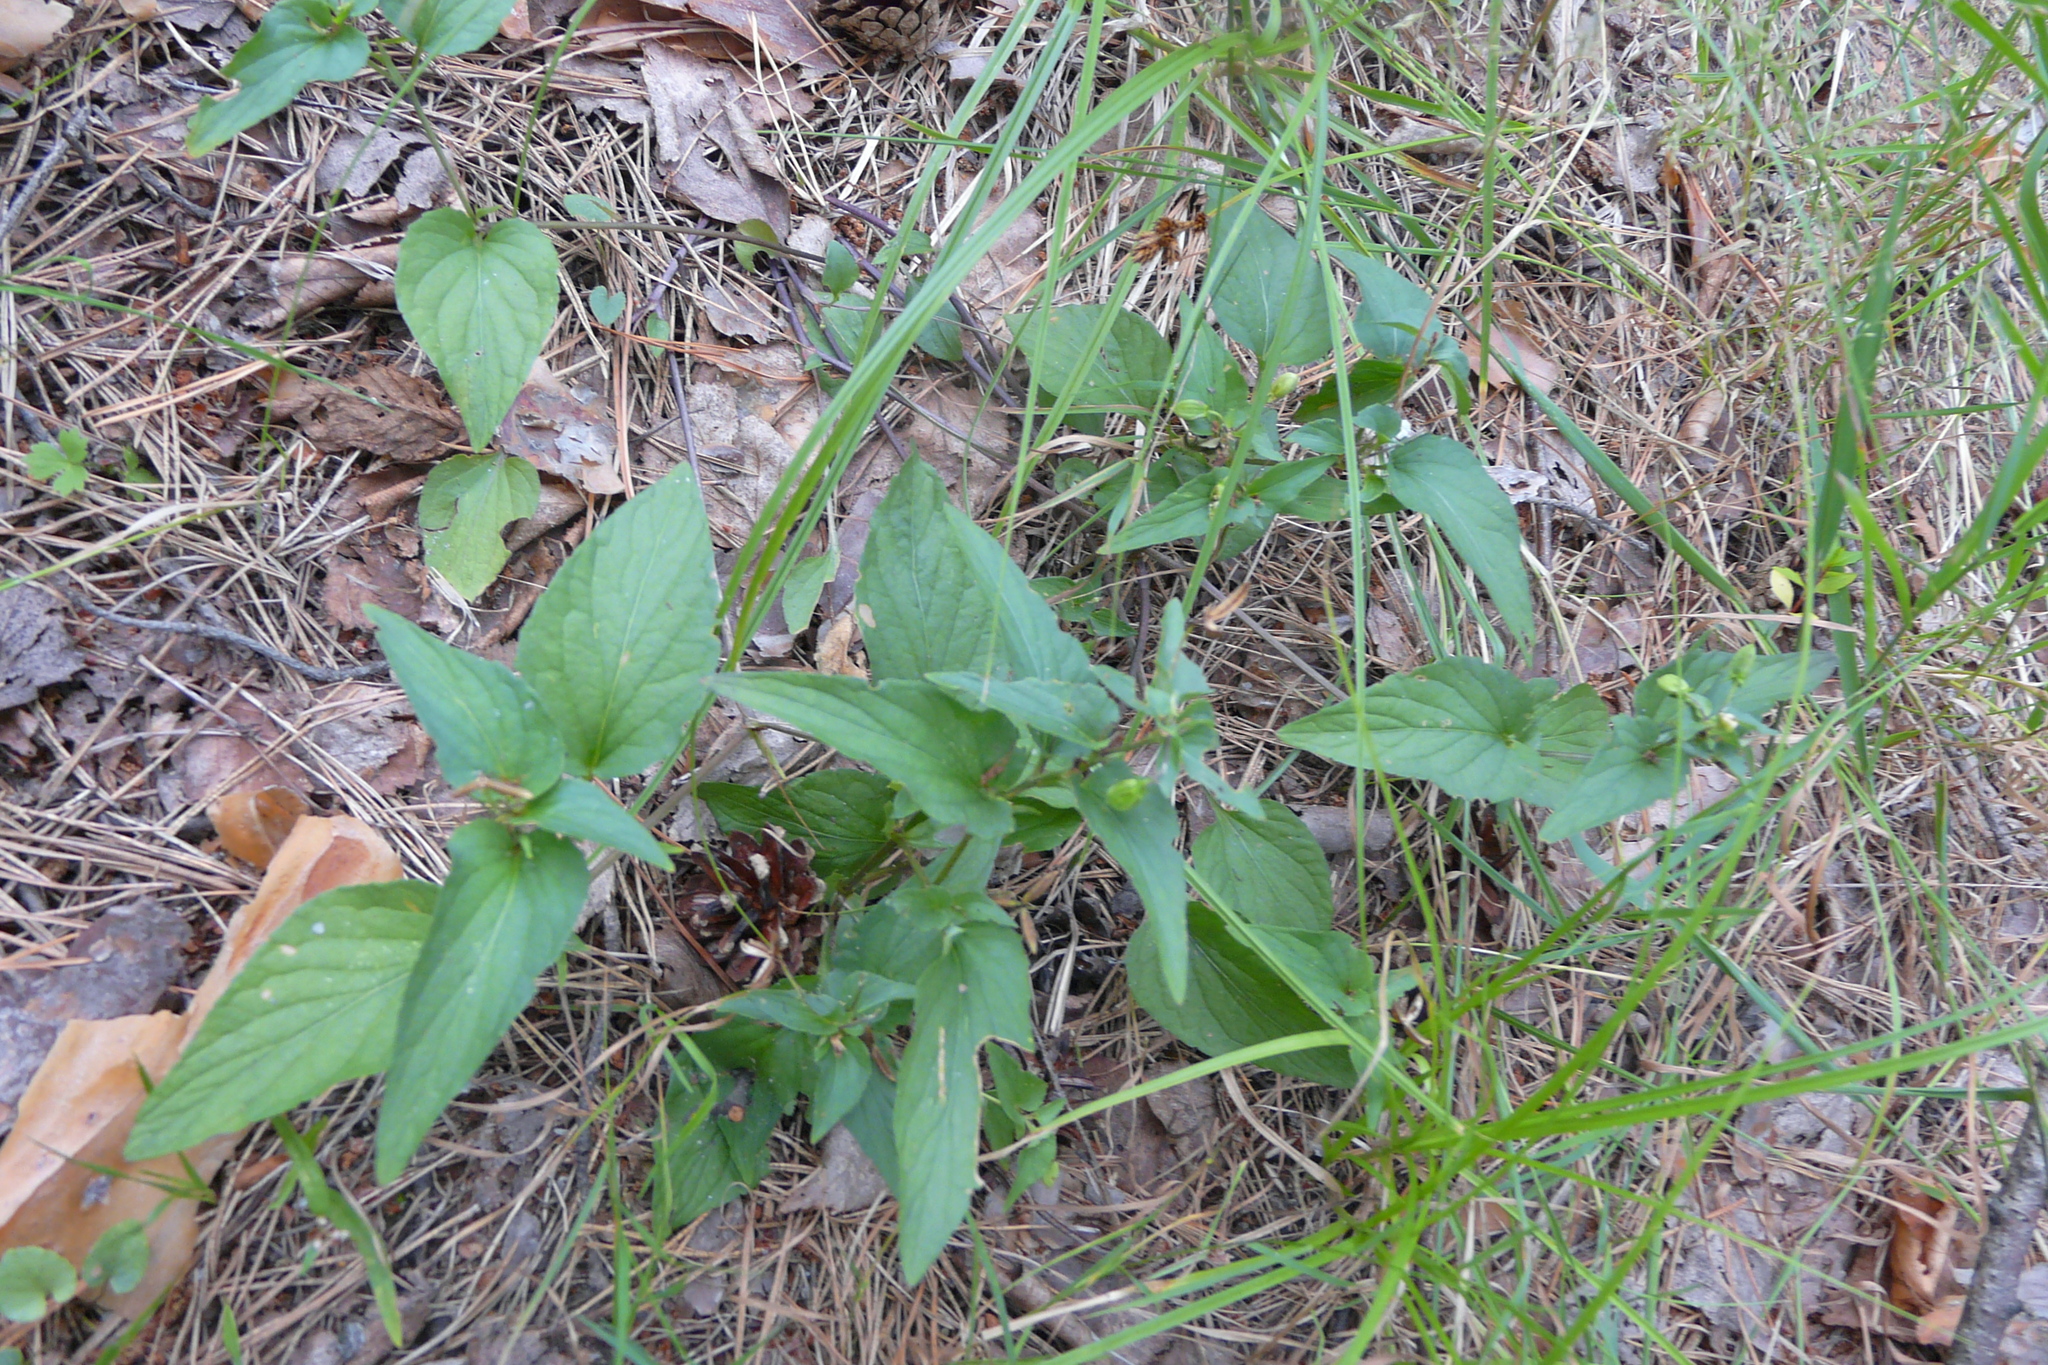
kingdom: Plantae
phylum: Tracheophyta
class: Magnoliopsida
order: Malpighiales
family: Violaceae
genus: Viola
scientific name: Viola
